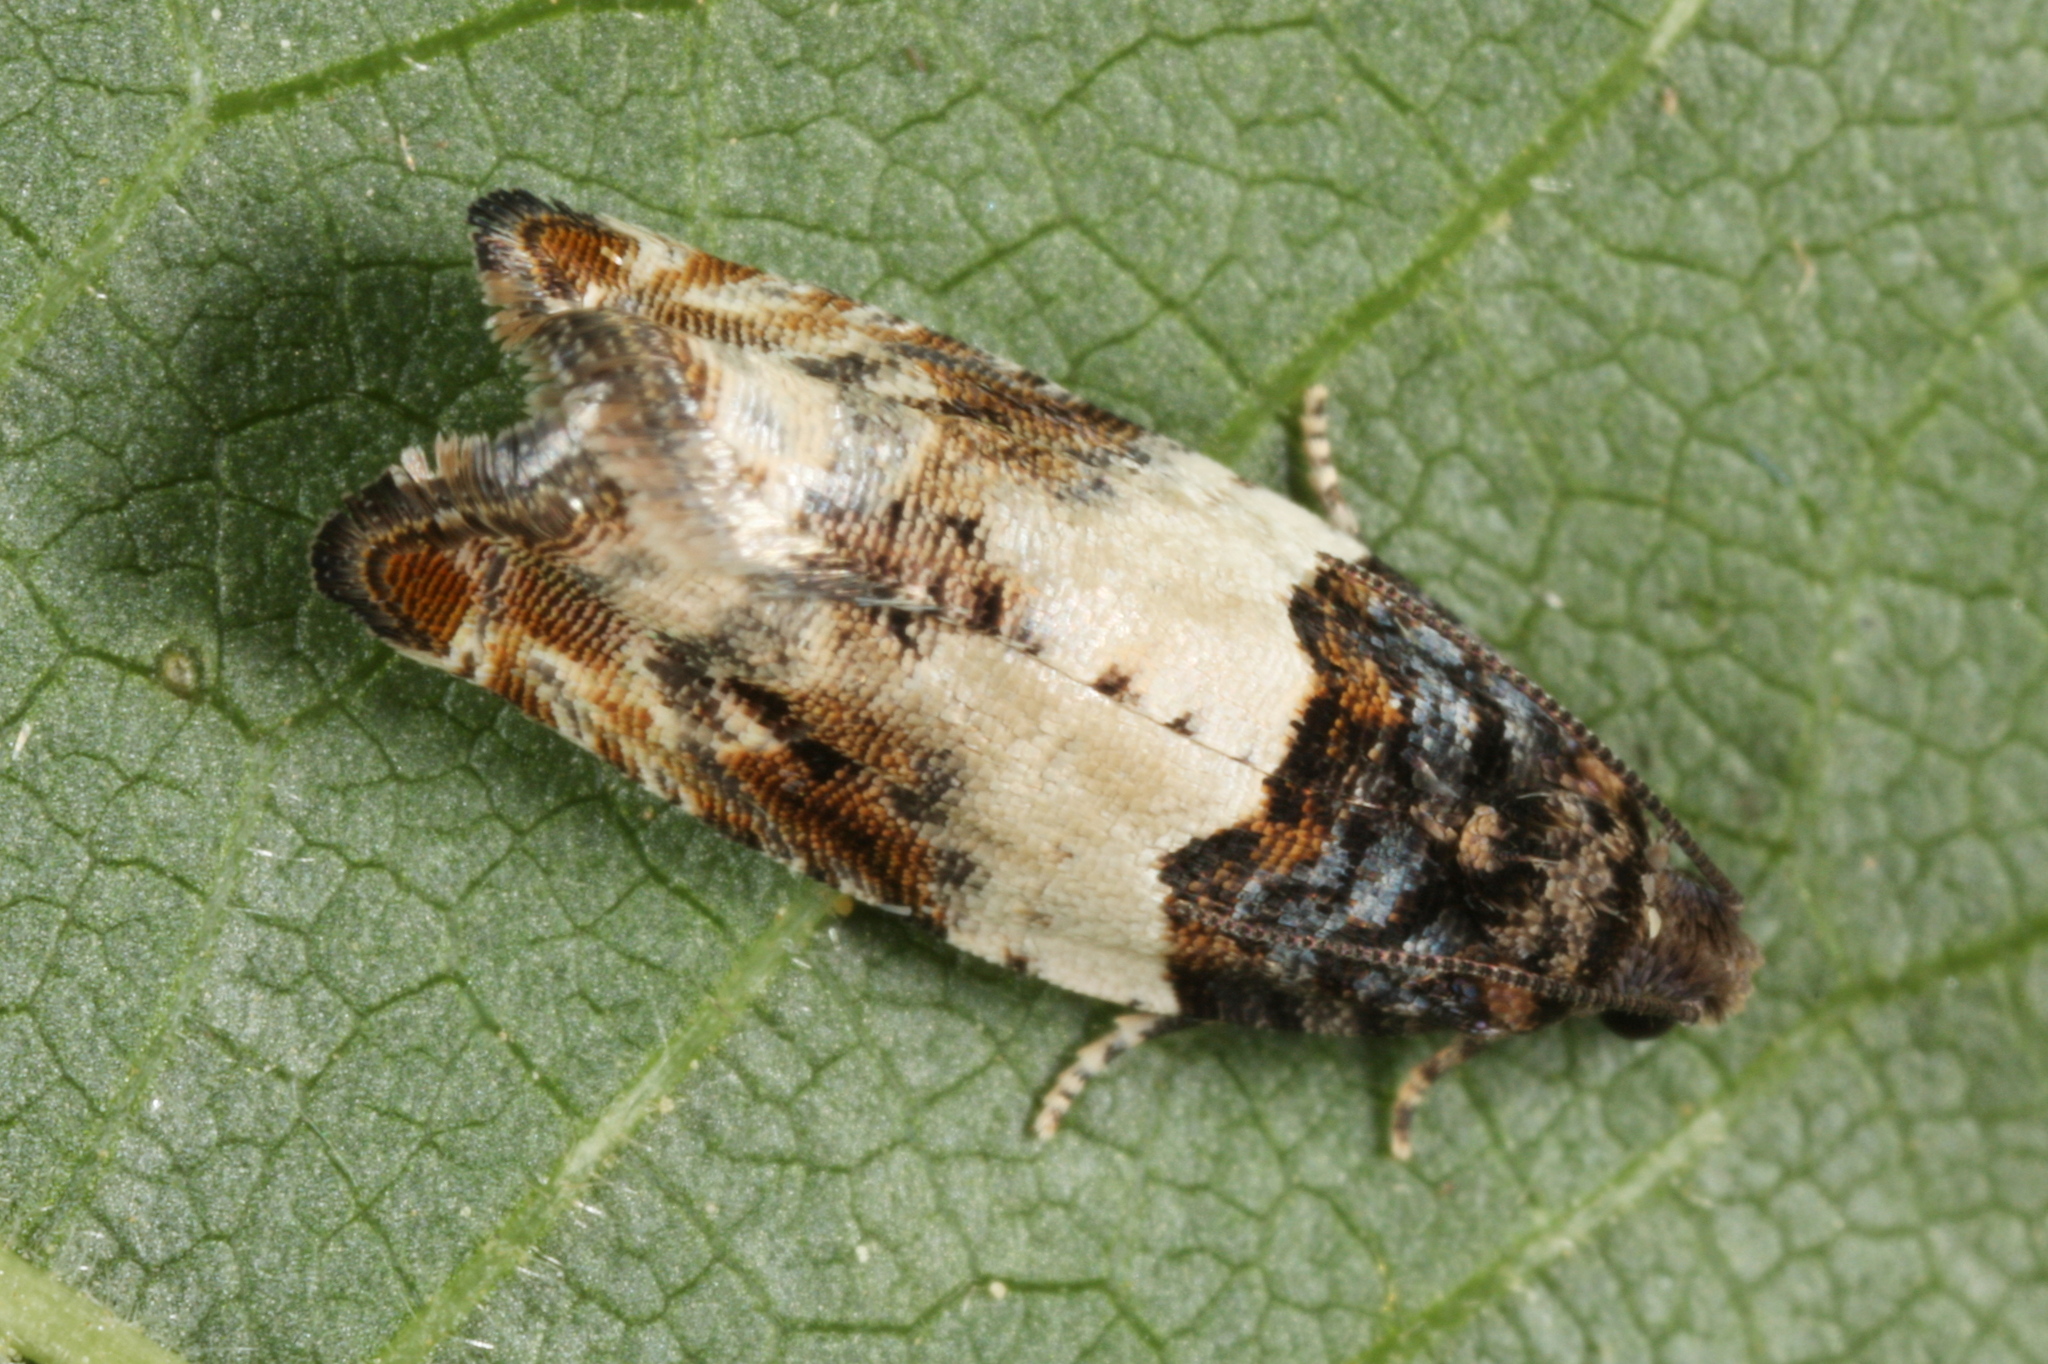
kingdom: Animalia
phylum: Arthropoda
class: Insecta
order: Lepidoptera
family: Tortricidae
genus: Gypsonoma
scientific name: Gypsonoma dealbana
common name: Common cloaked shoot
